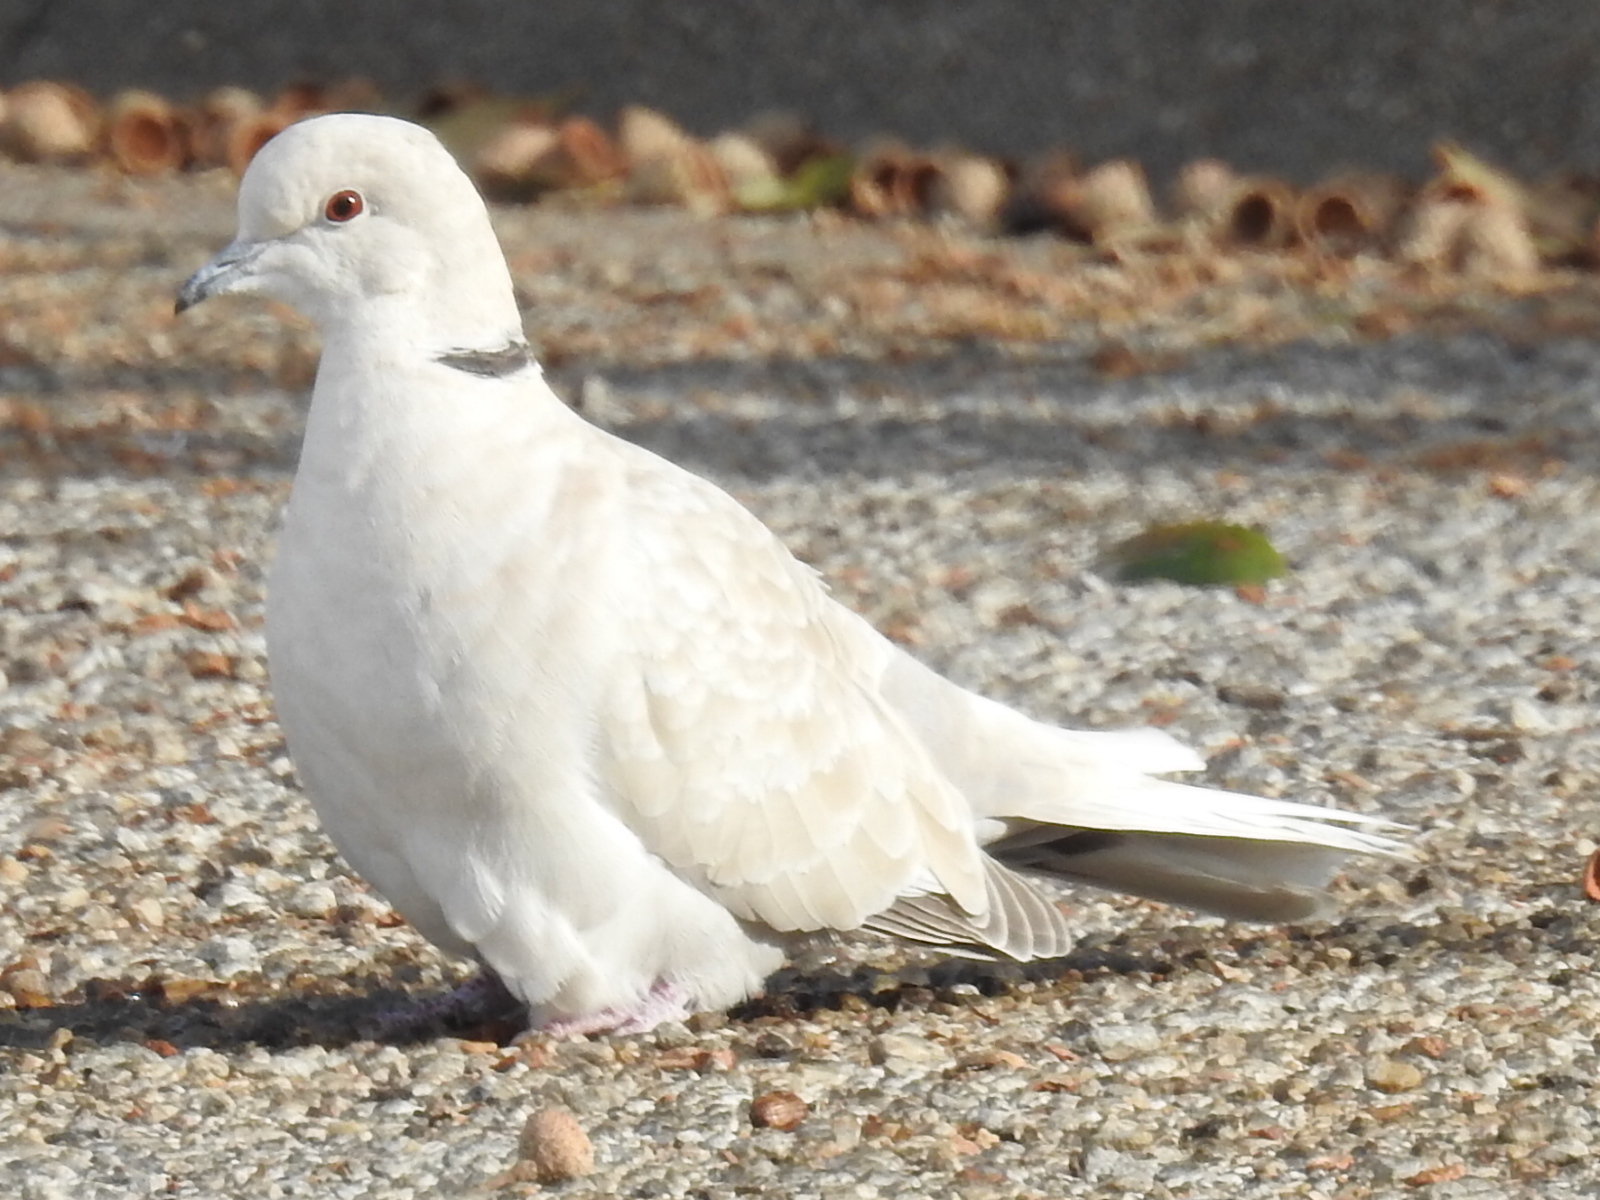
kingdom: Animalia
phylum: Chordata
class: Aves
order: Columbiformes
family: Columbidae
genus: Streptopelia
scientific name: Streptopelia decaocto
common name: Eurasian collared dove
